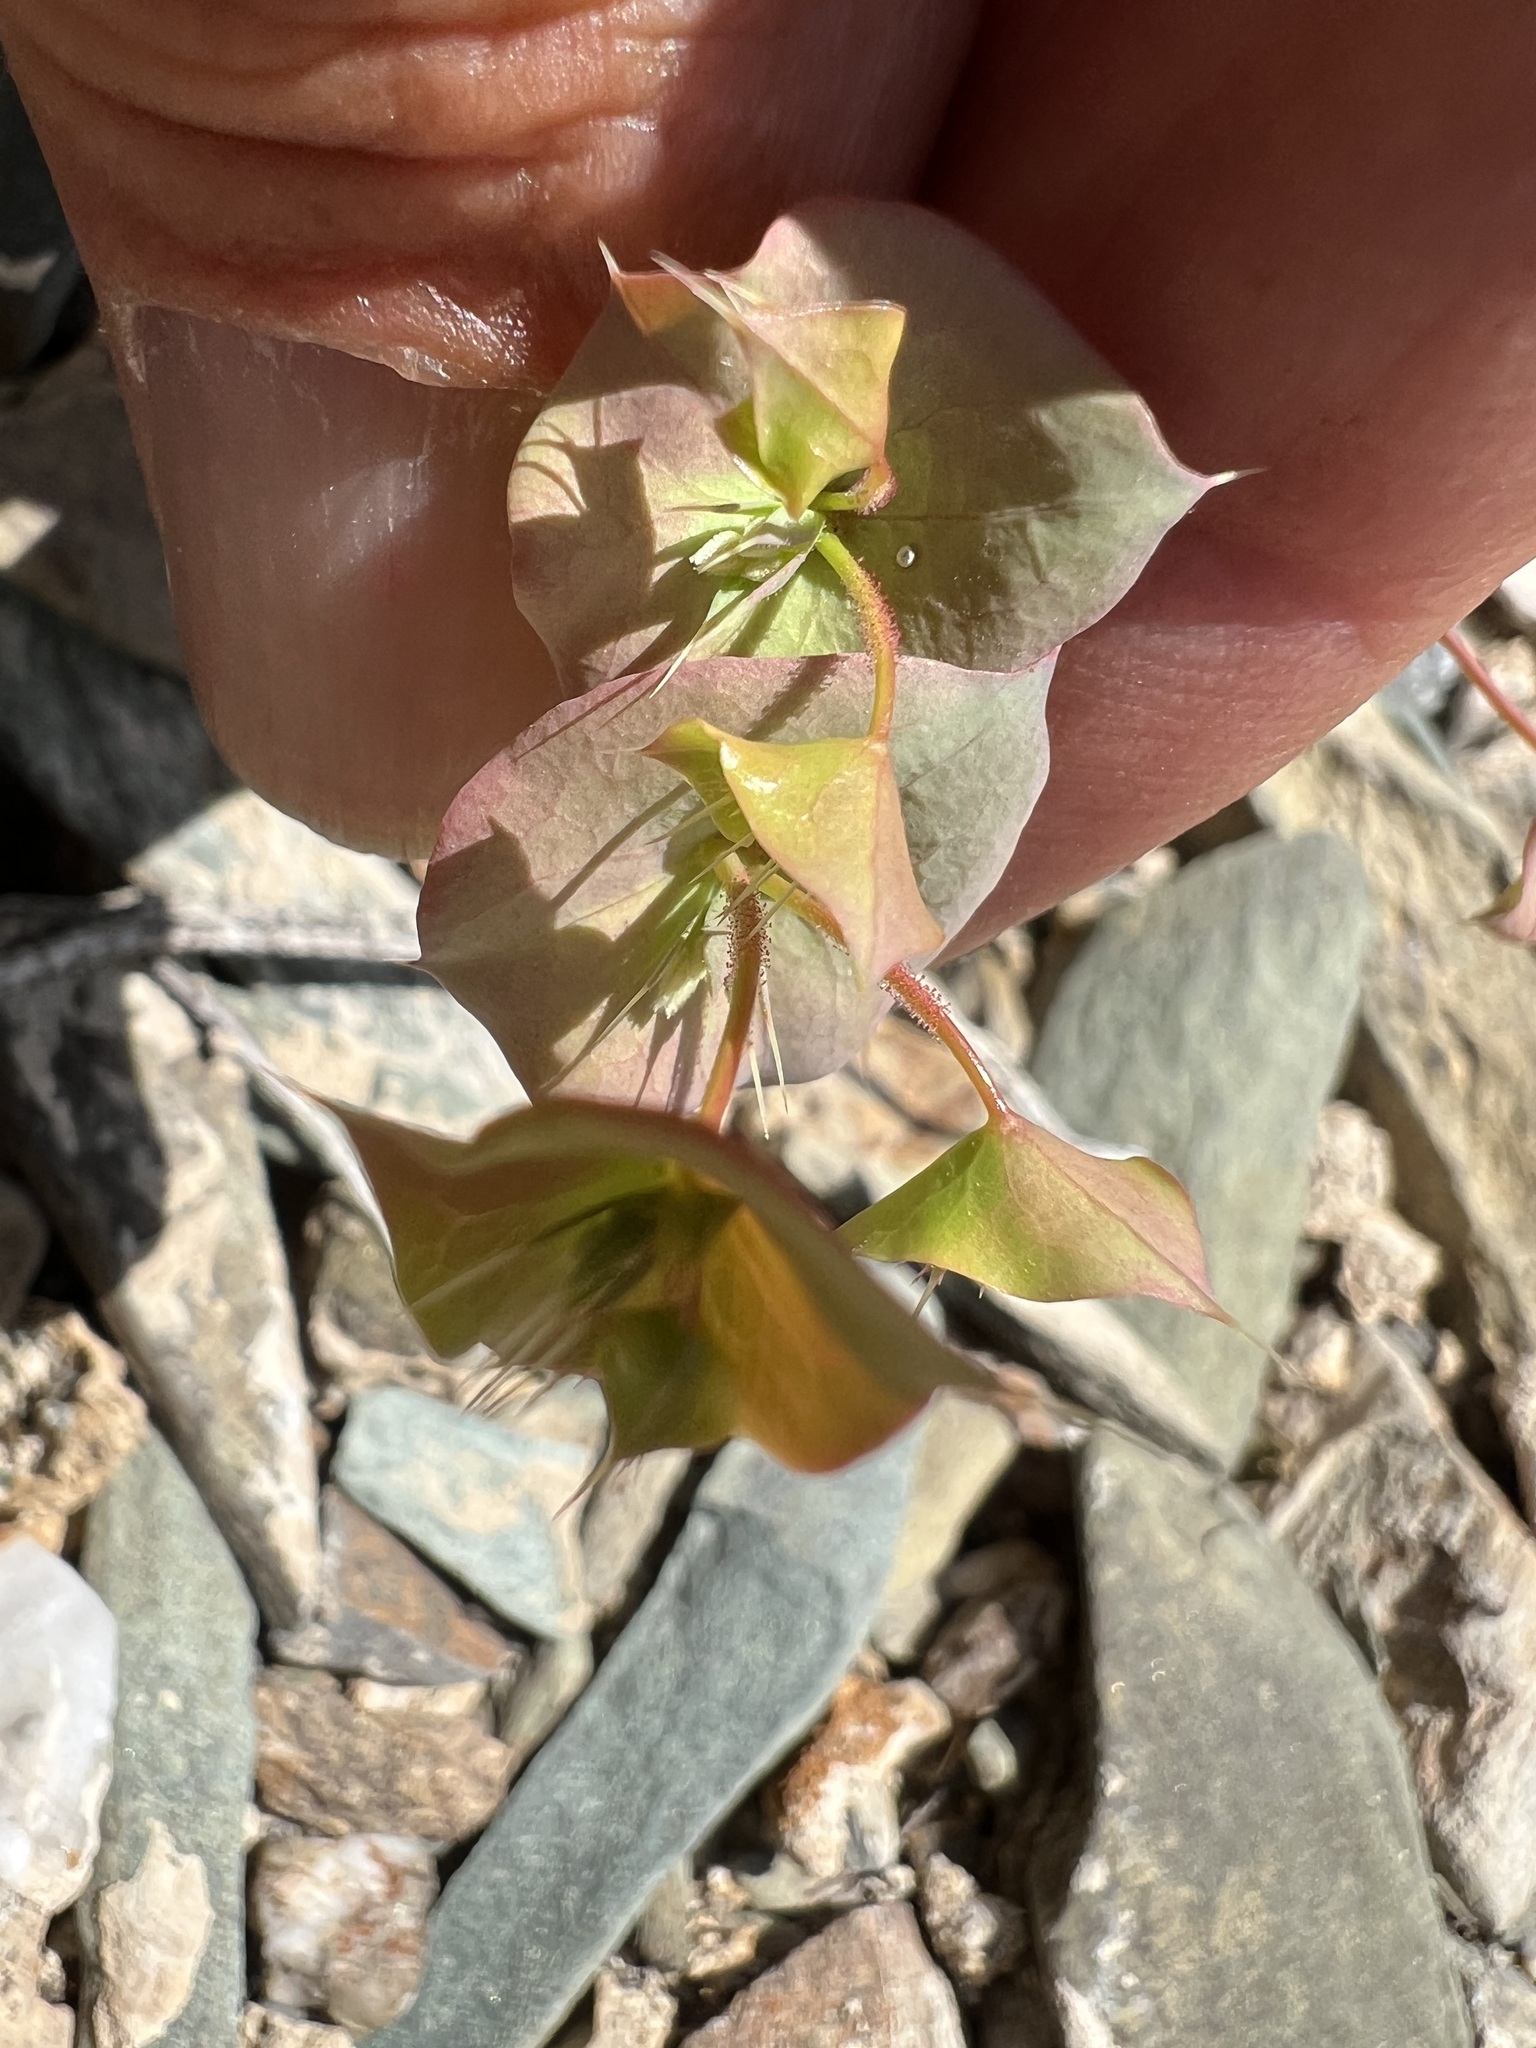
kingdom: Plantae
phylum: Tracheophyta
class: Magnoliopsida
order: Caryophyllales
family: Polygonaceae
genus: Oxytheca
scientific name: Oxytheca perfoliata
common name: Round-leaf puncturebract
